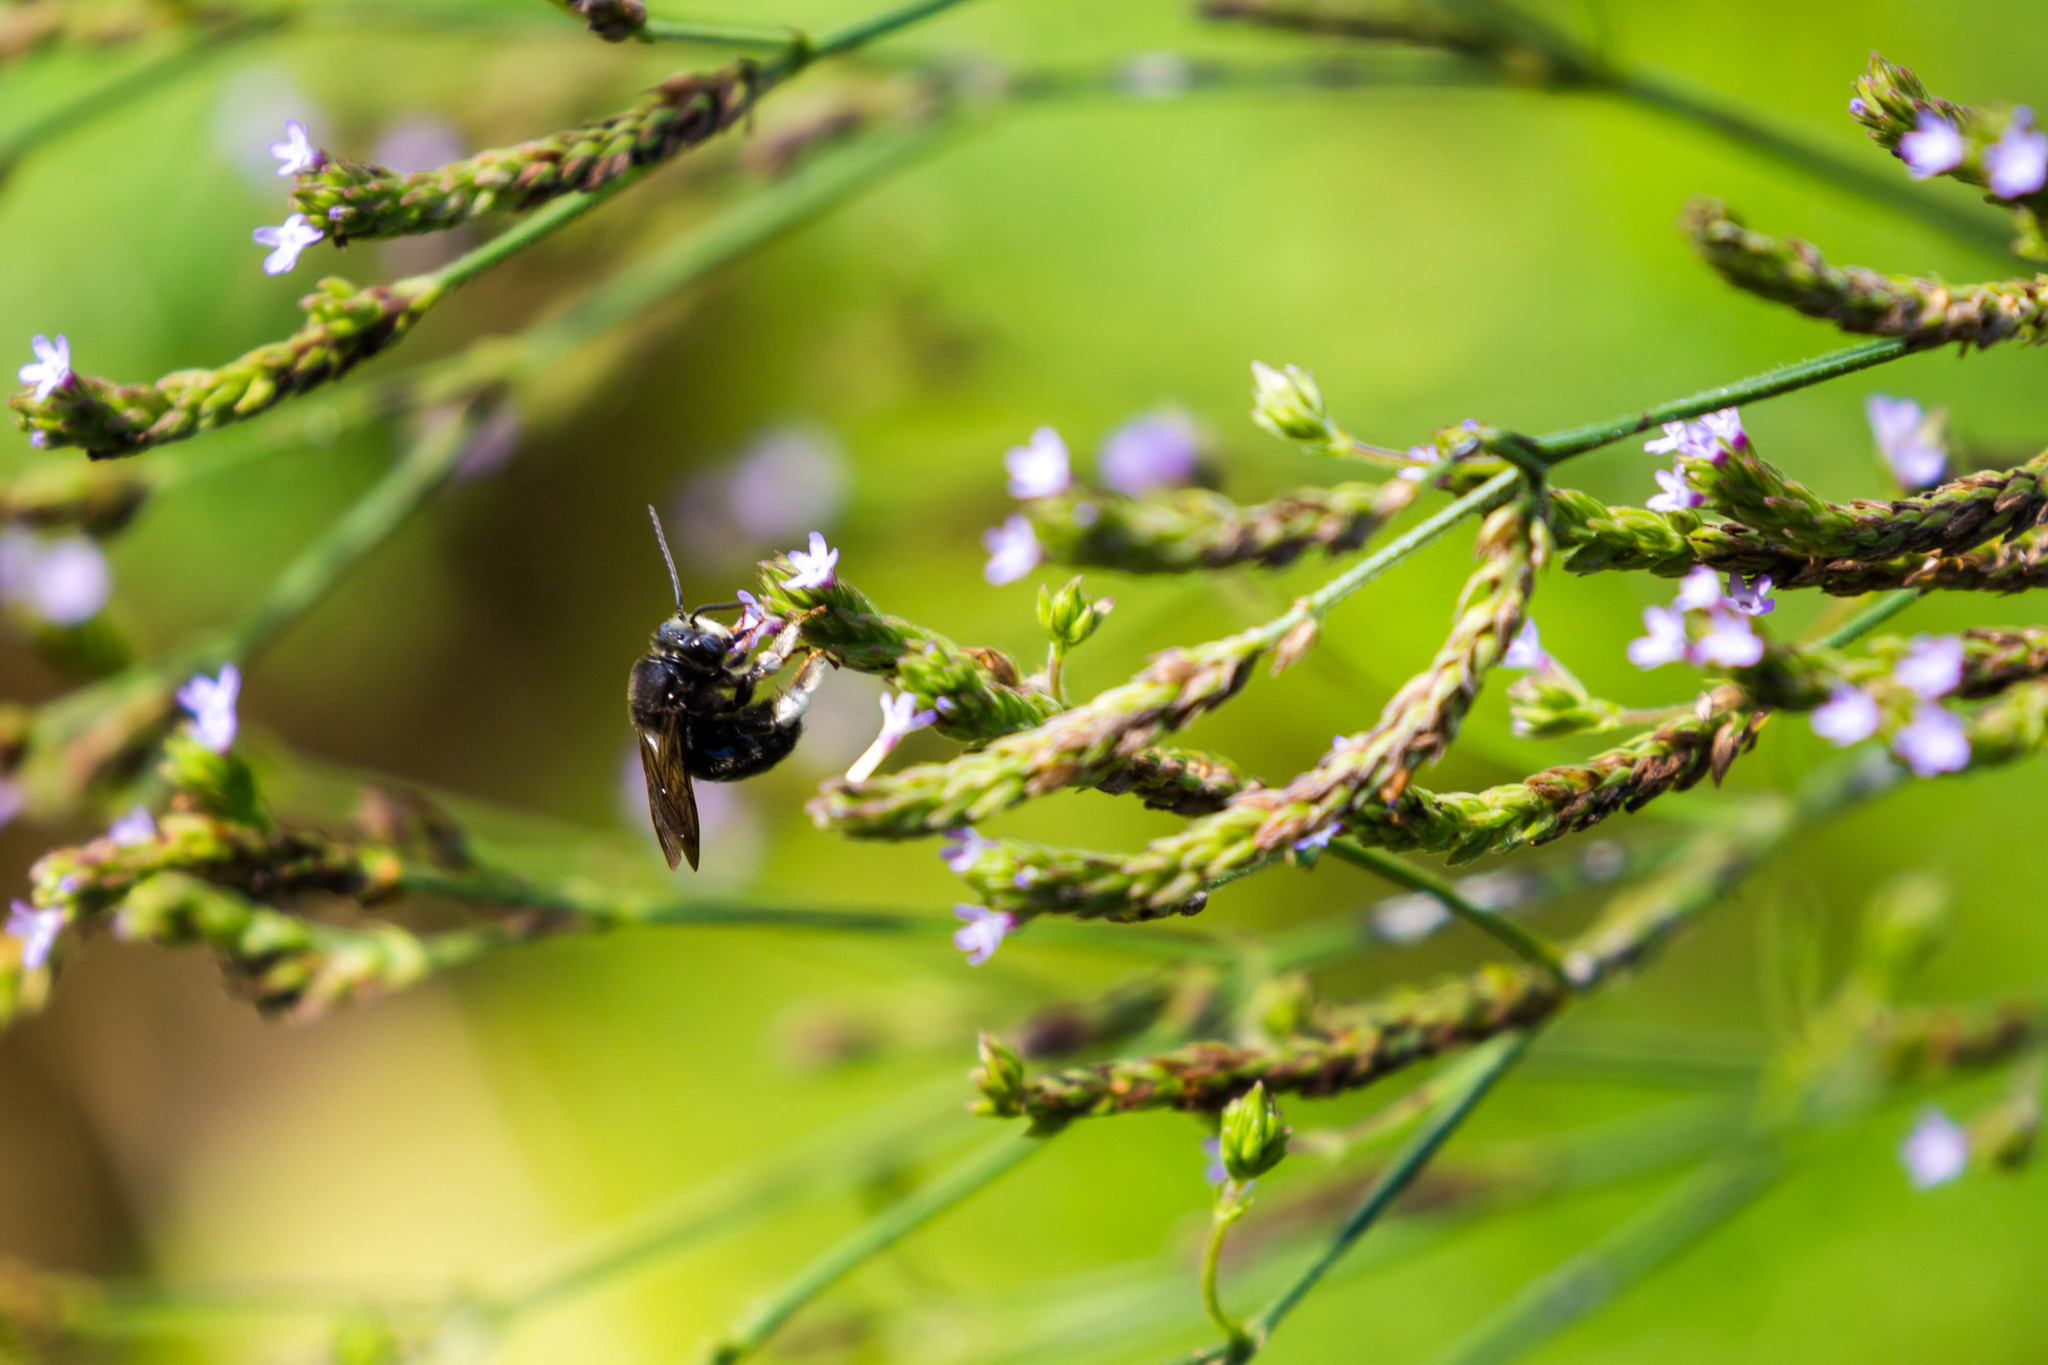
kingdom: Animalia
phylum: Arthropoda
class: Insecta
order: Hymenoptera
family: Apidae
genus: Melissodes
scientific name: Melissodes bimaculatus
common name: Two-spotted long-horned bee
